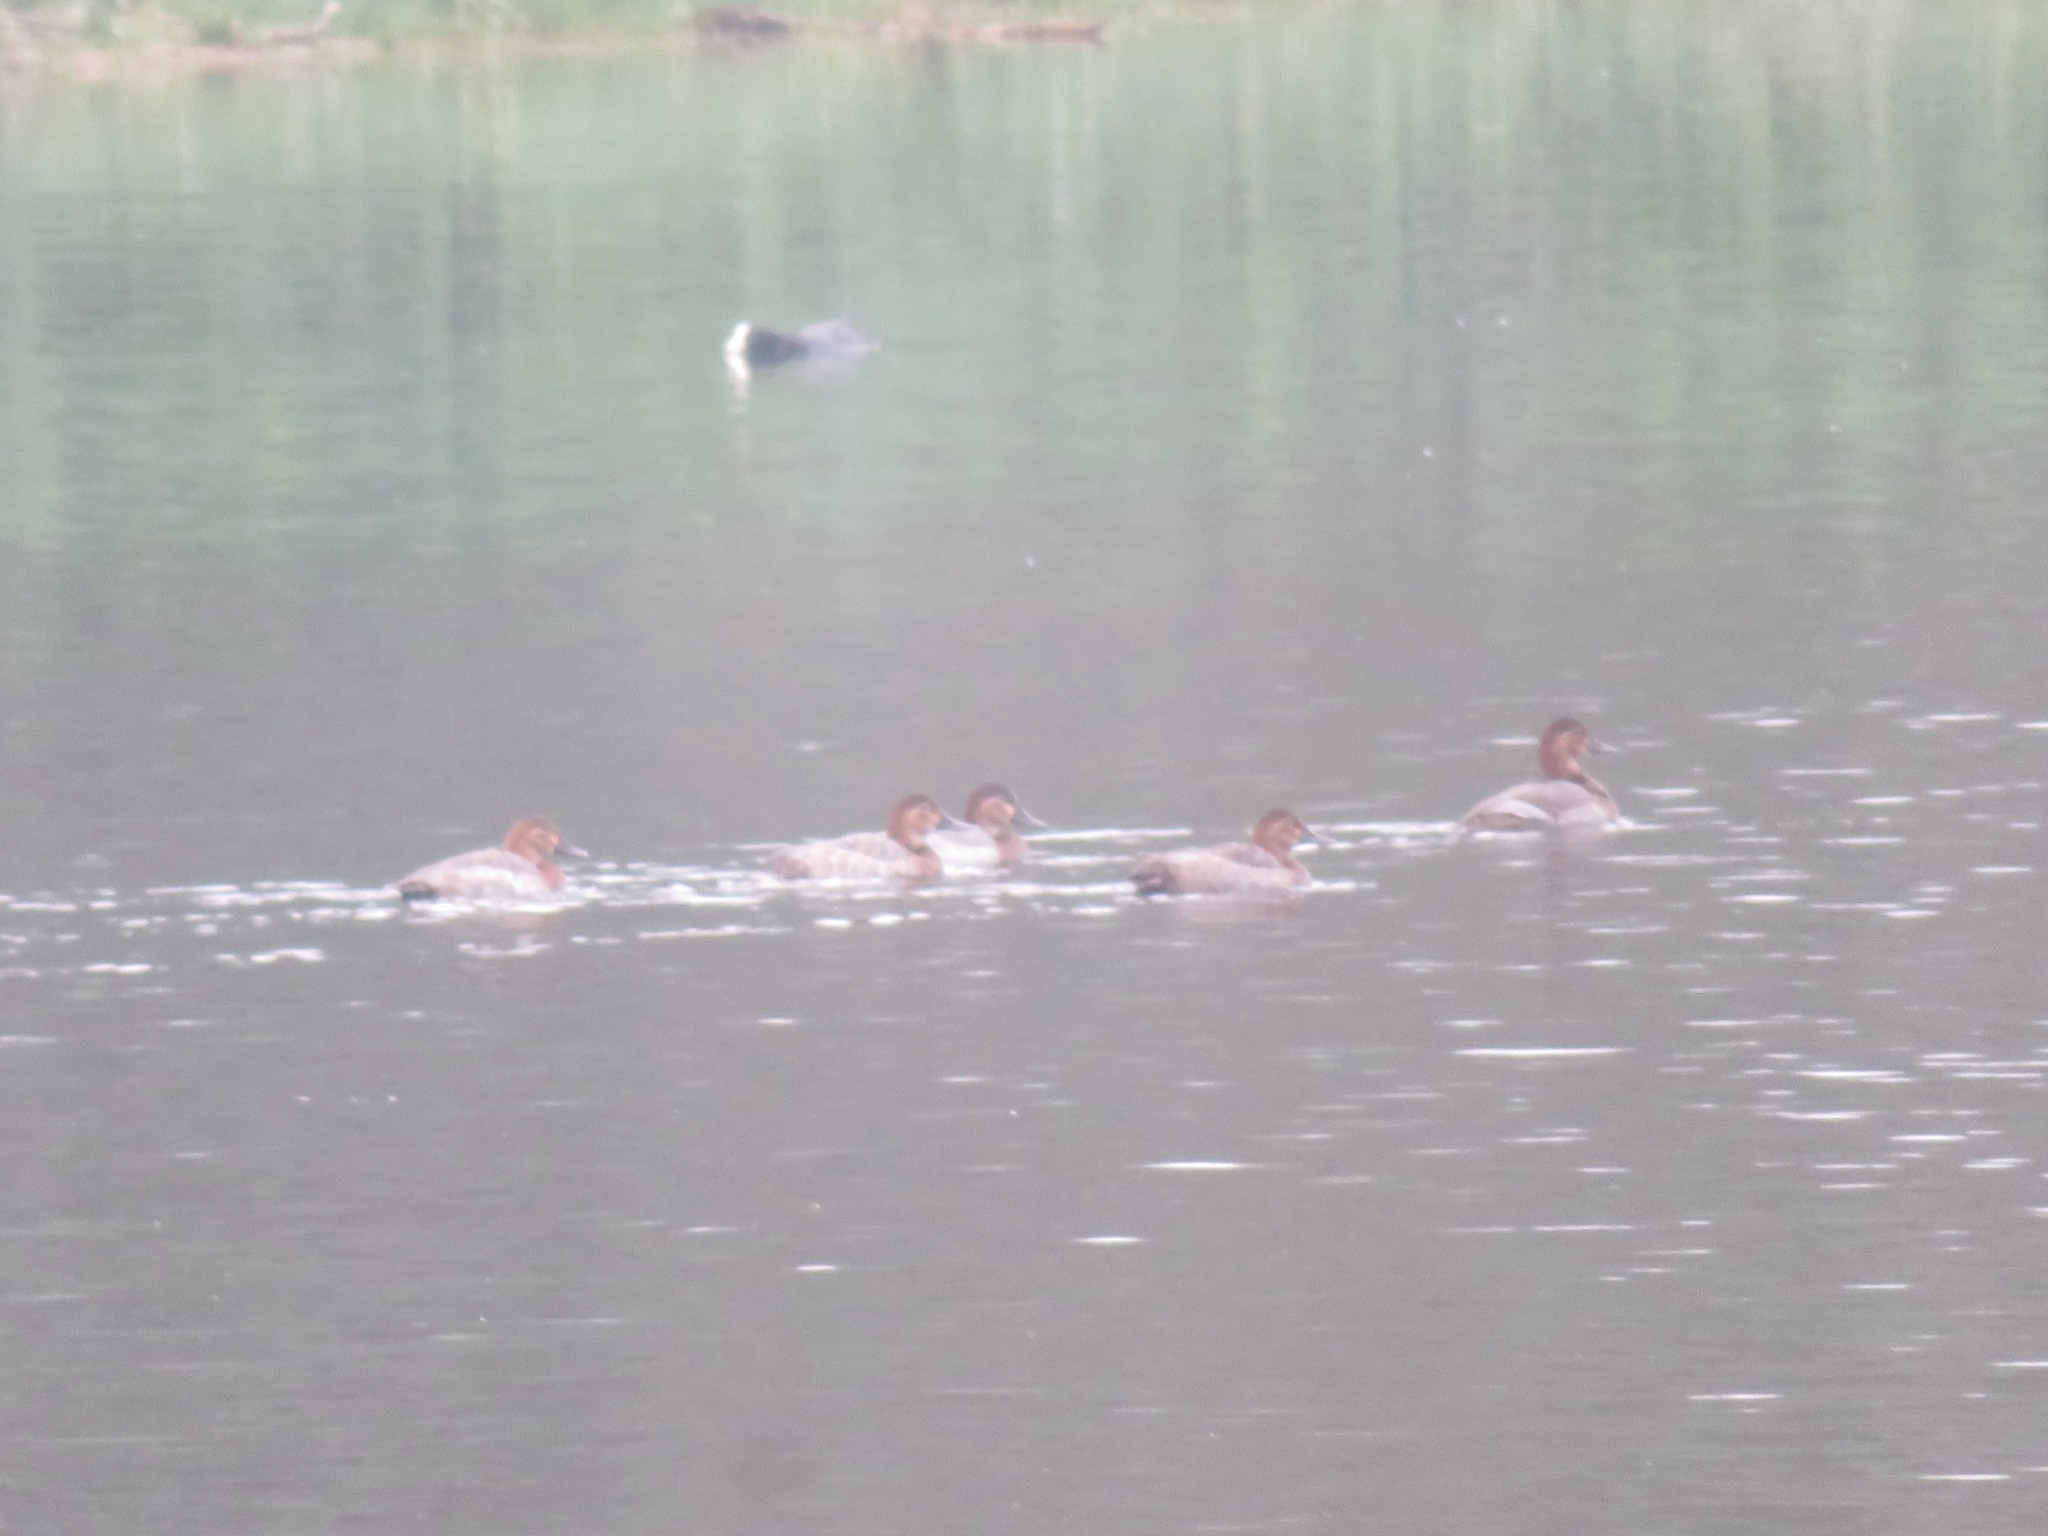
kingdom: Animalia
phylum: Chordata
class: Aves
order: Anseriformes
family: Anatidae
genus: Aythya
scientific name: Aythya ferina
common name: Common pochard
